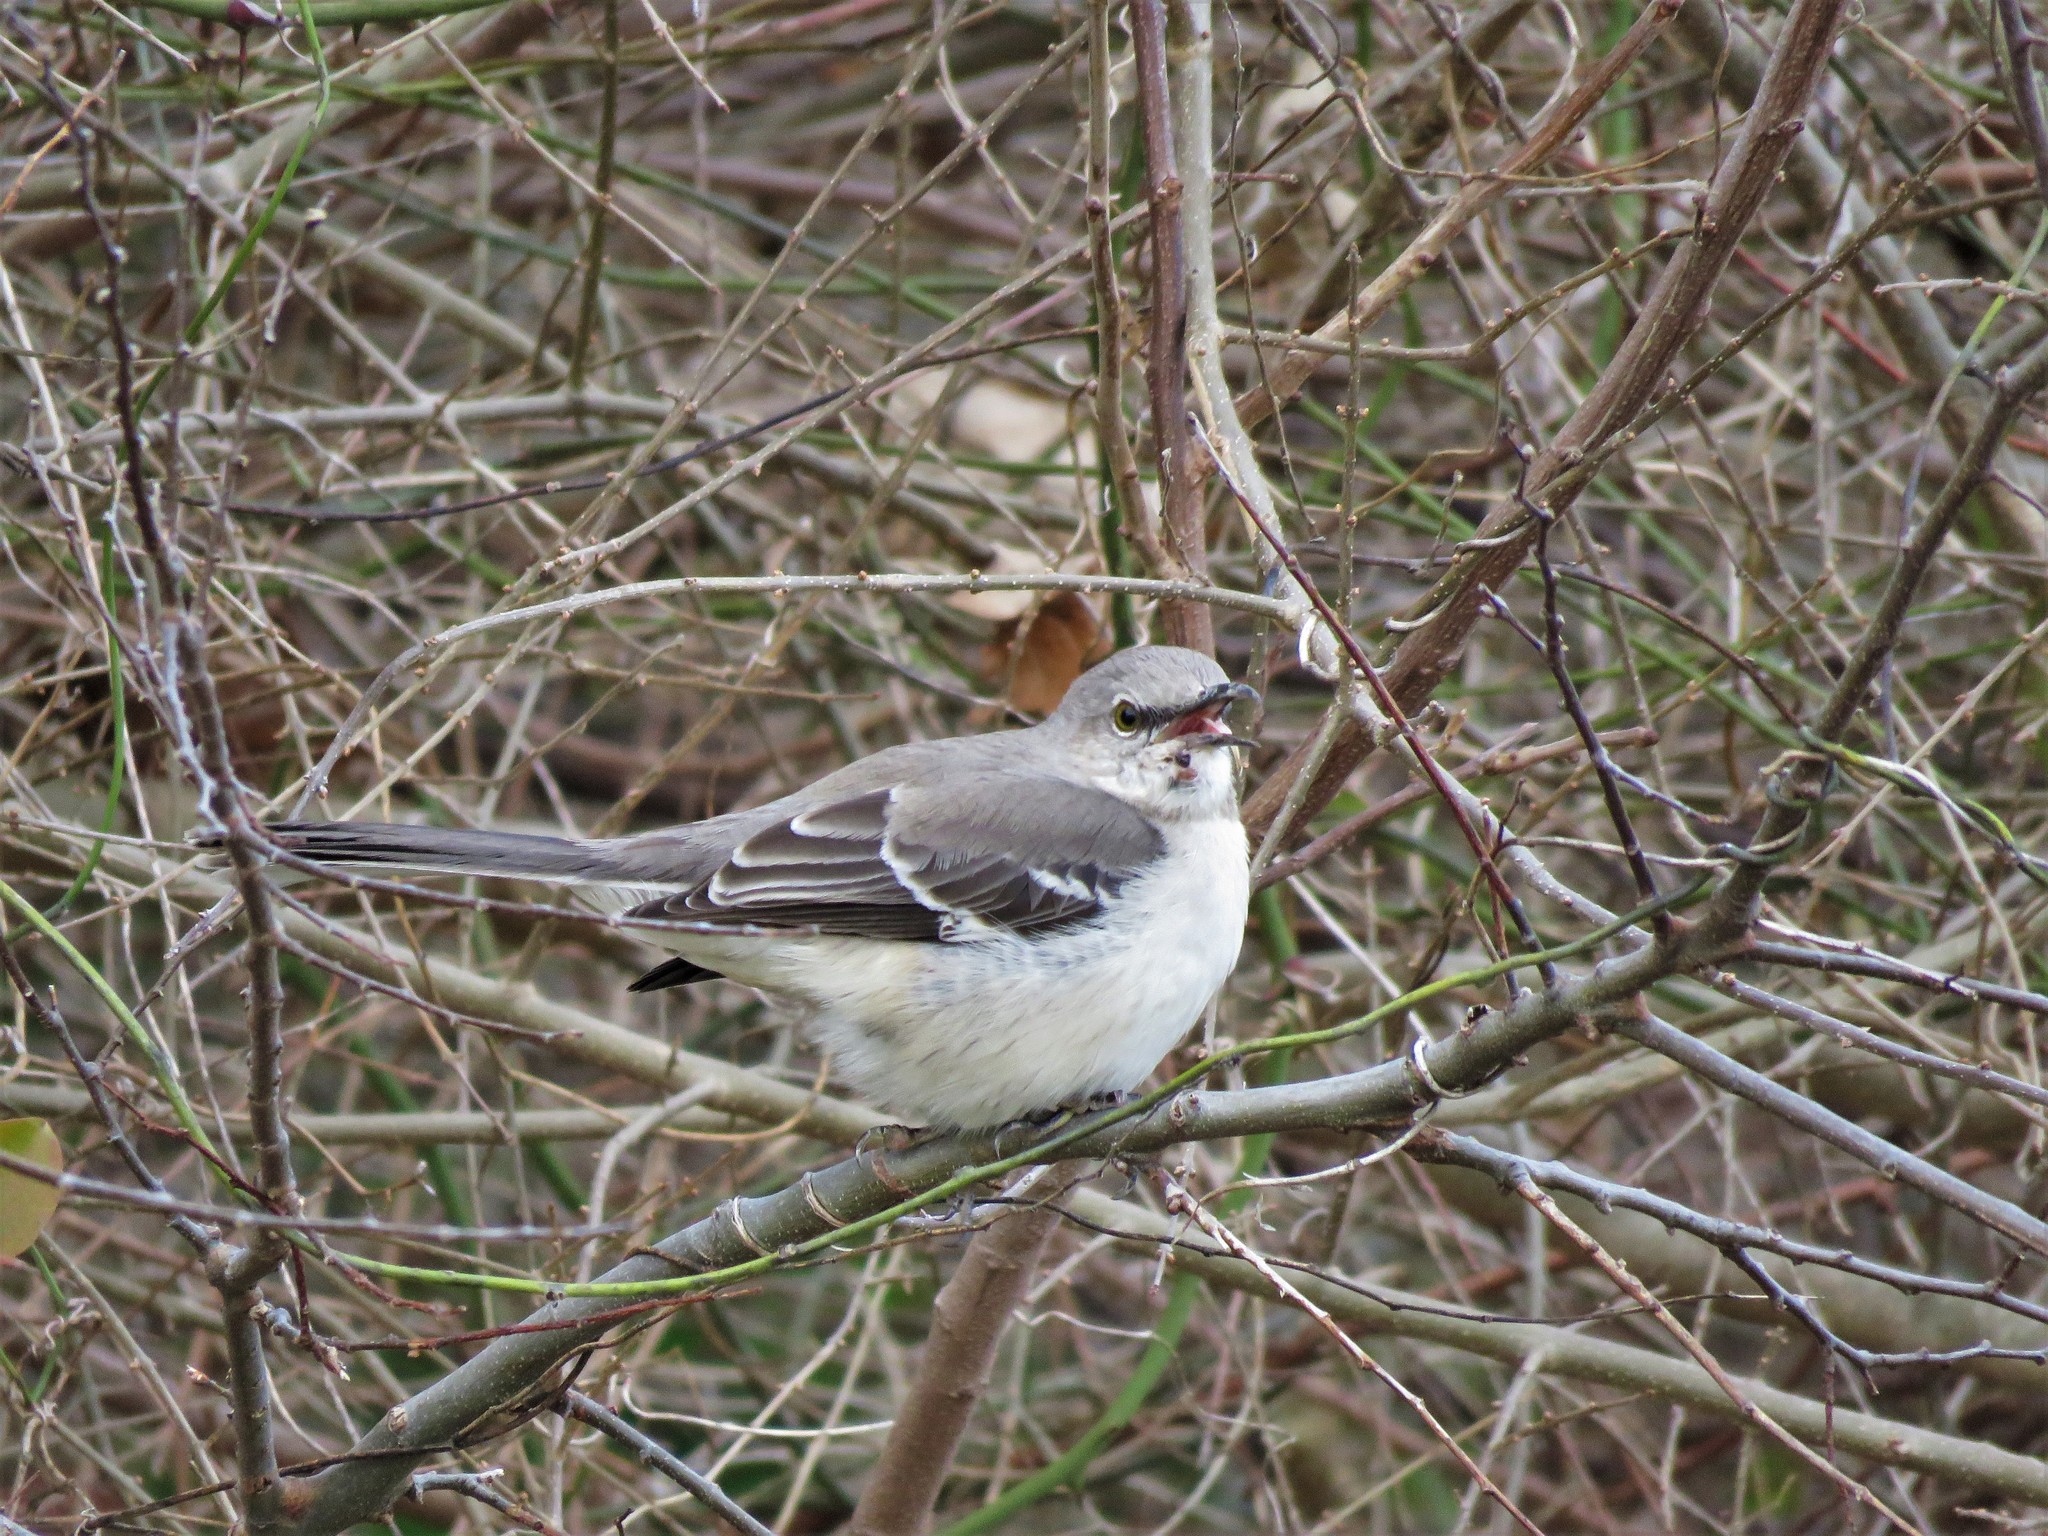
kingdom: Animalia
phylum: Chordata
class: Aves
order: Passeriformes
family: Mimidae
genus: Mimus
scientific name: Mimus polyglottos
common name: Northern mockingbird
